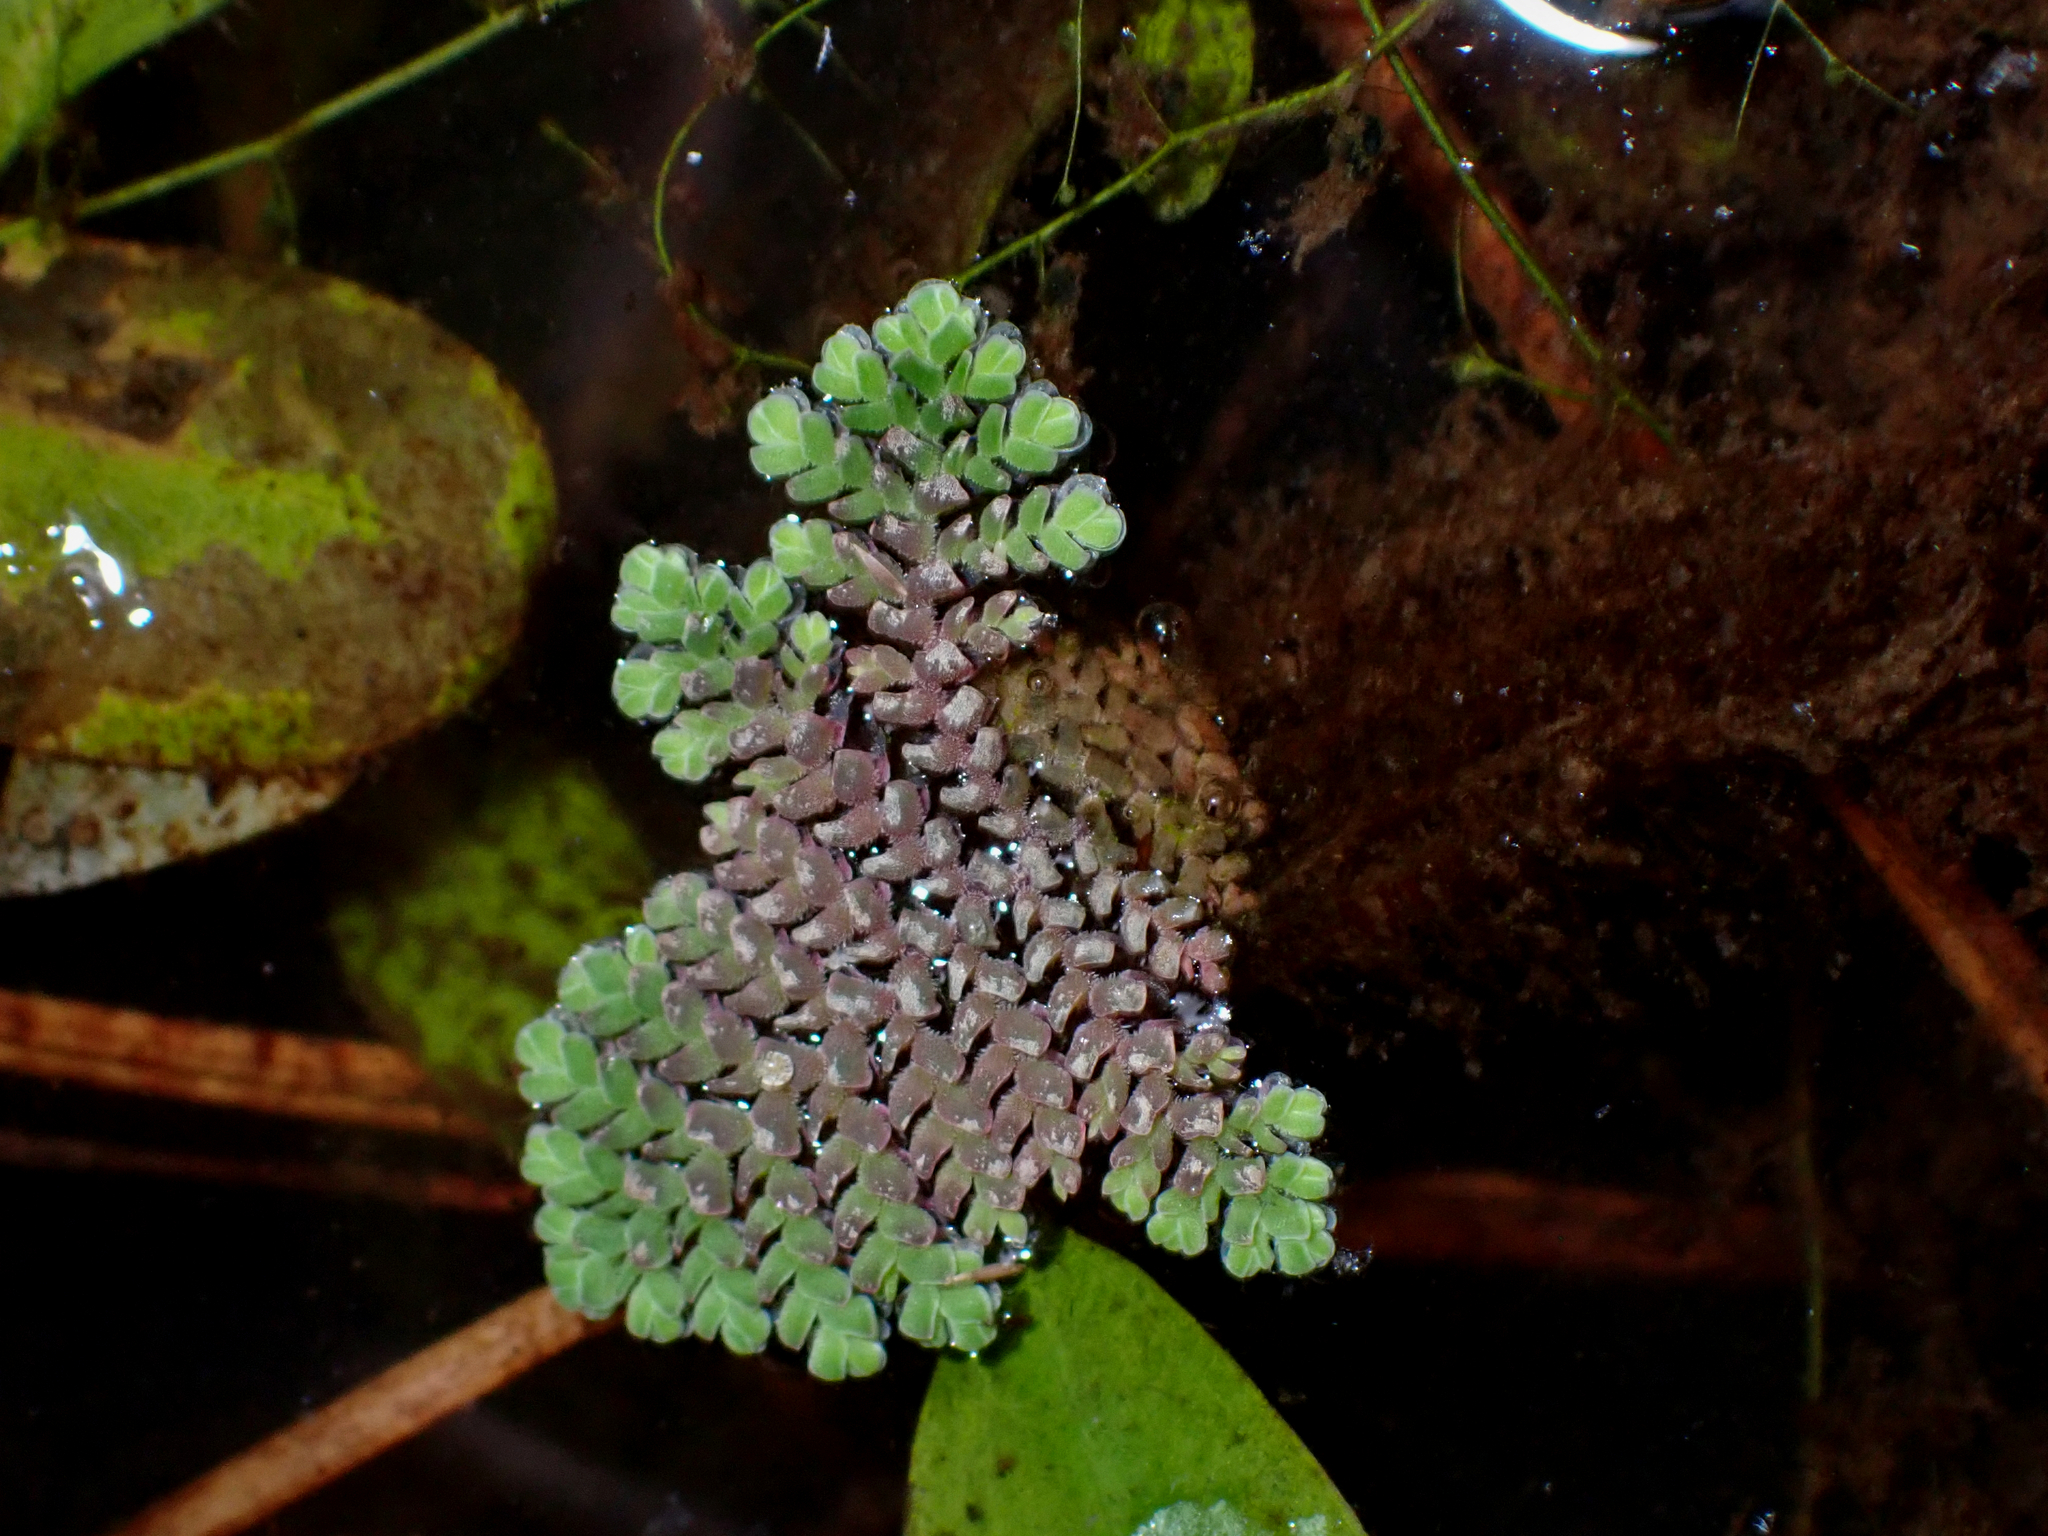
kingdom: Plantae
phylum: Tracheophyta
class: Polypodiopsida
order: Salviniales
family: Salviniaceae
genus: Azolla
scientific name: Azolla pinnata
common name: Ferny azolla
